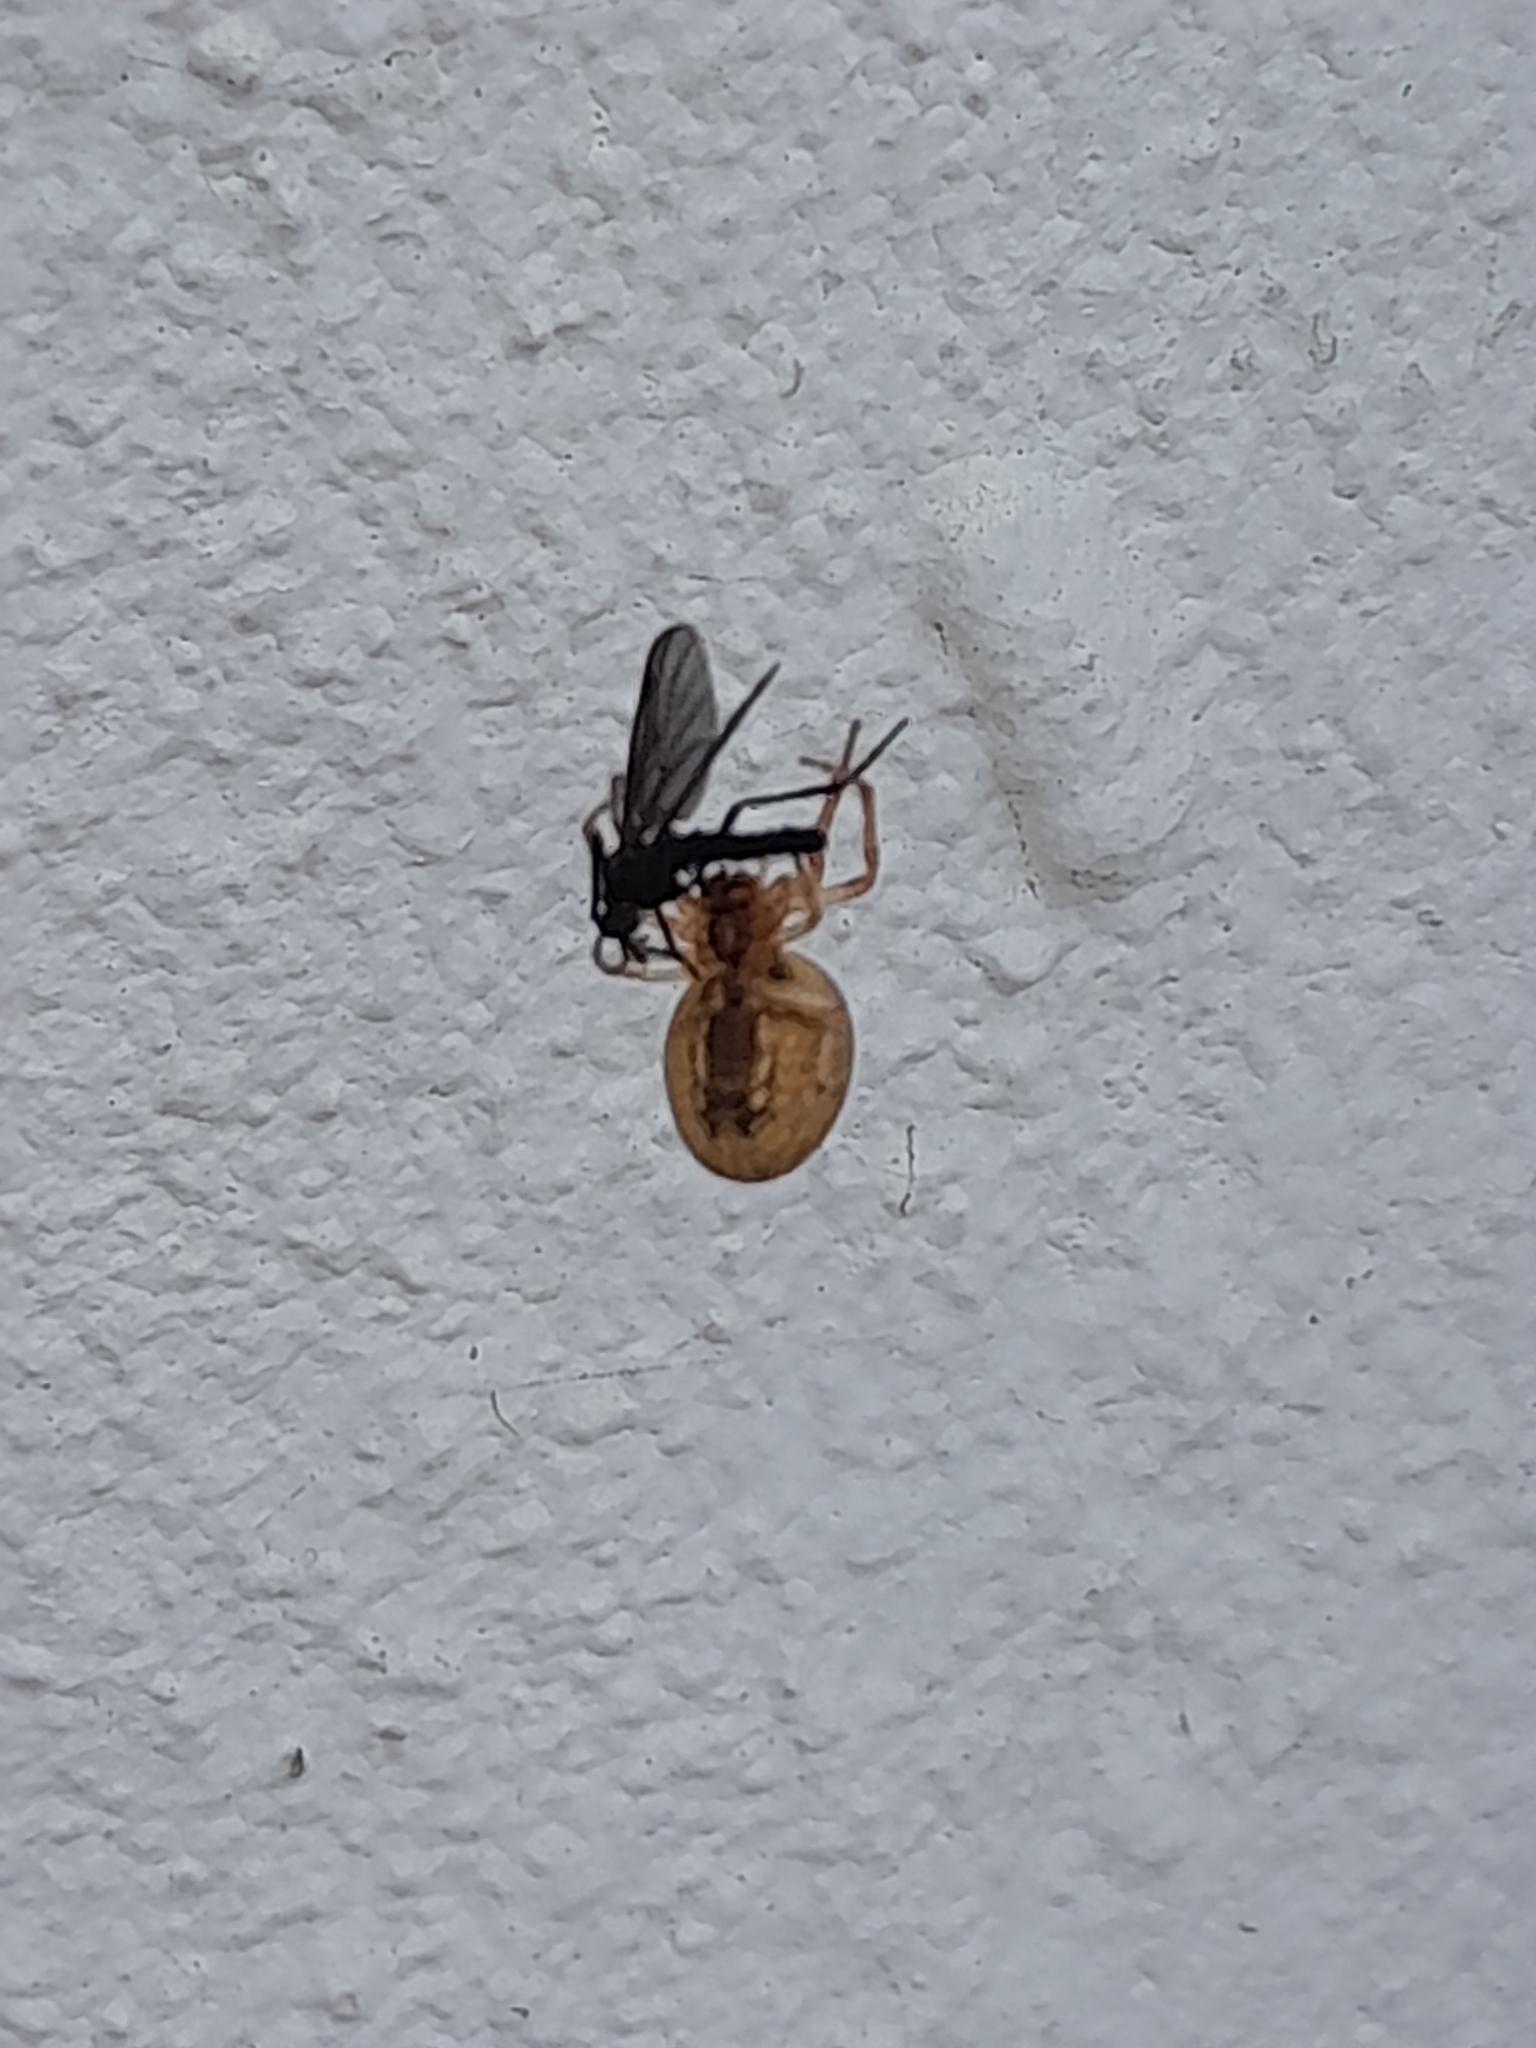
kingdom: Animalia
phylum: Arthropoda
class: Insecta
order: Diptera
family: Bibionidae
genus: Plecia
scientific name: Plecia ruficollis
